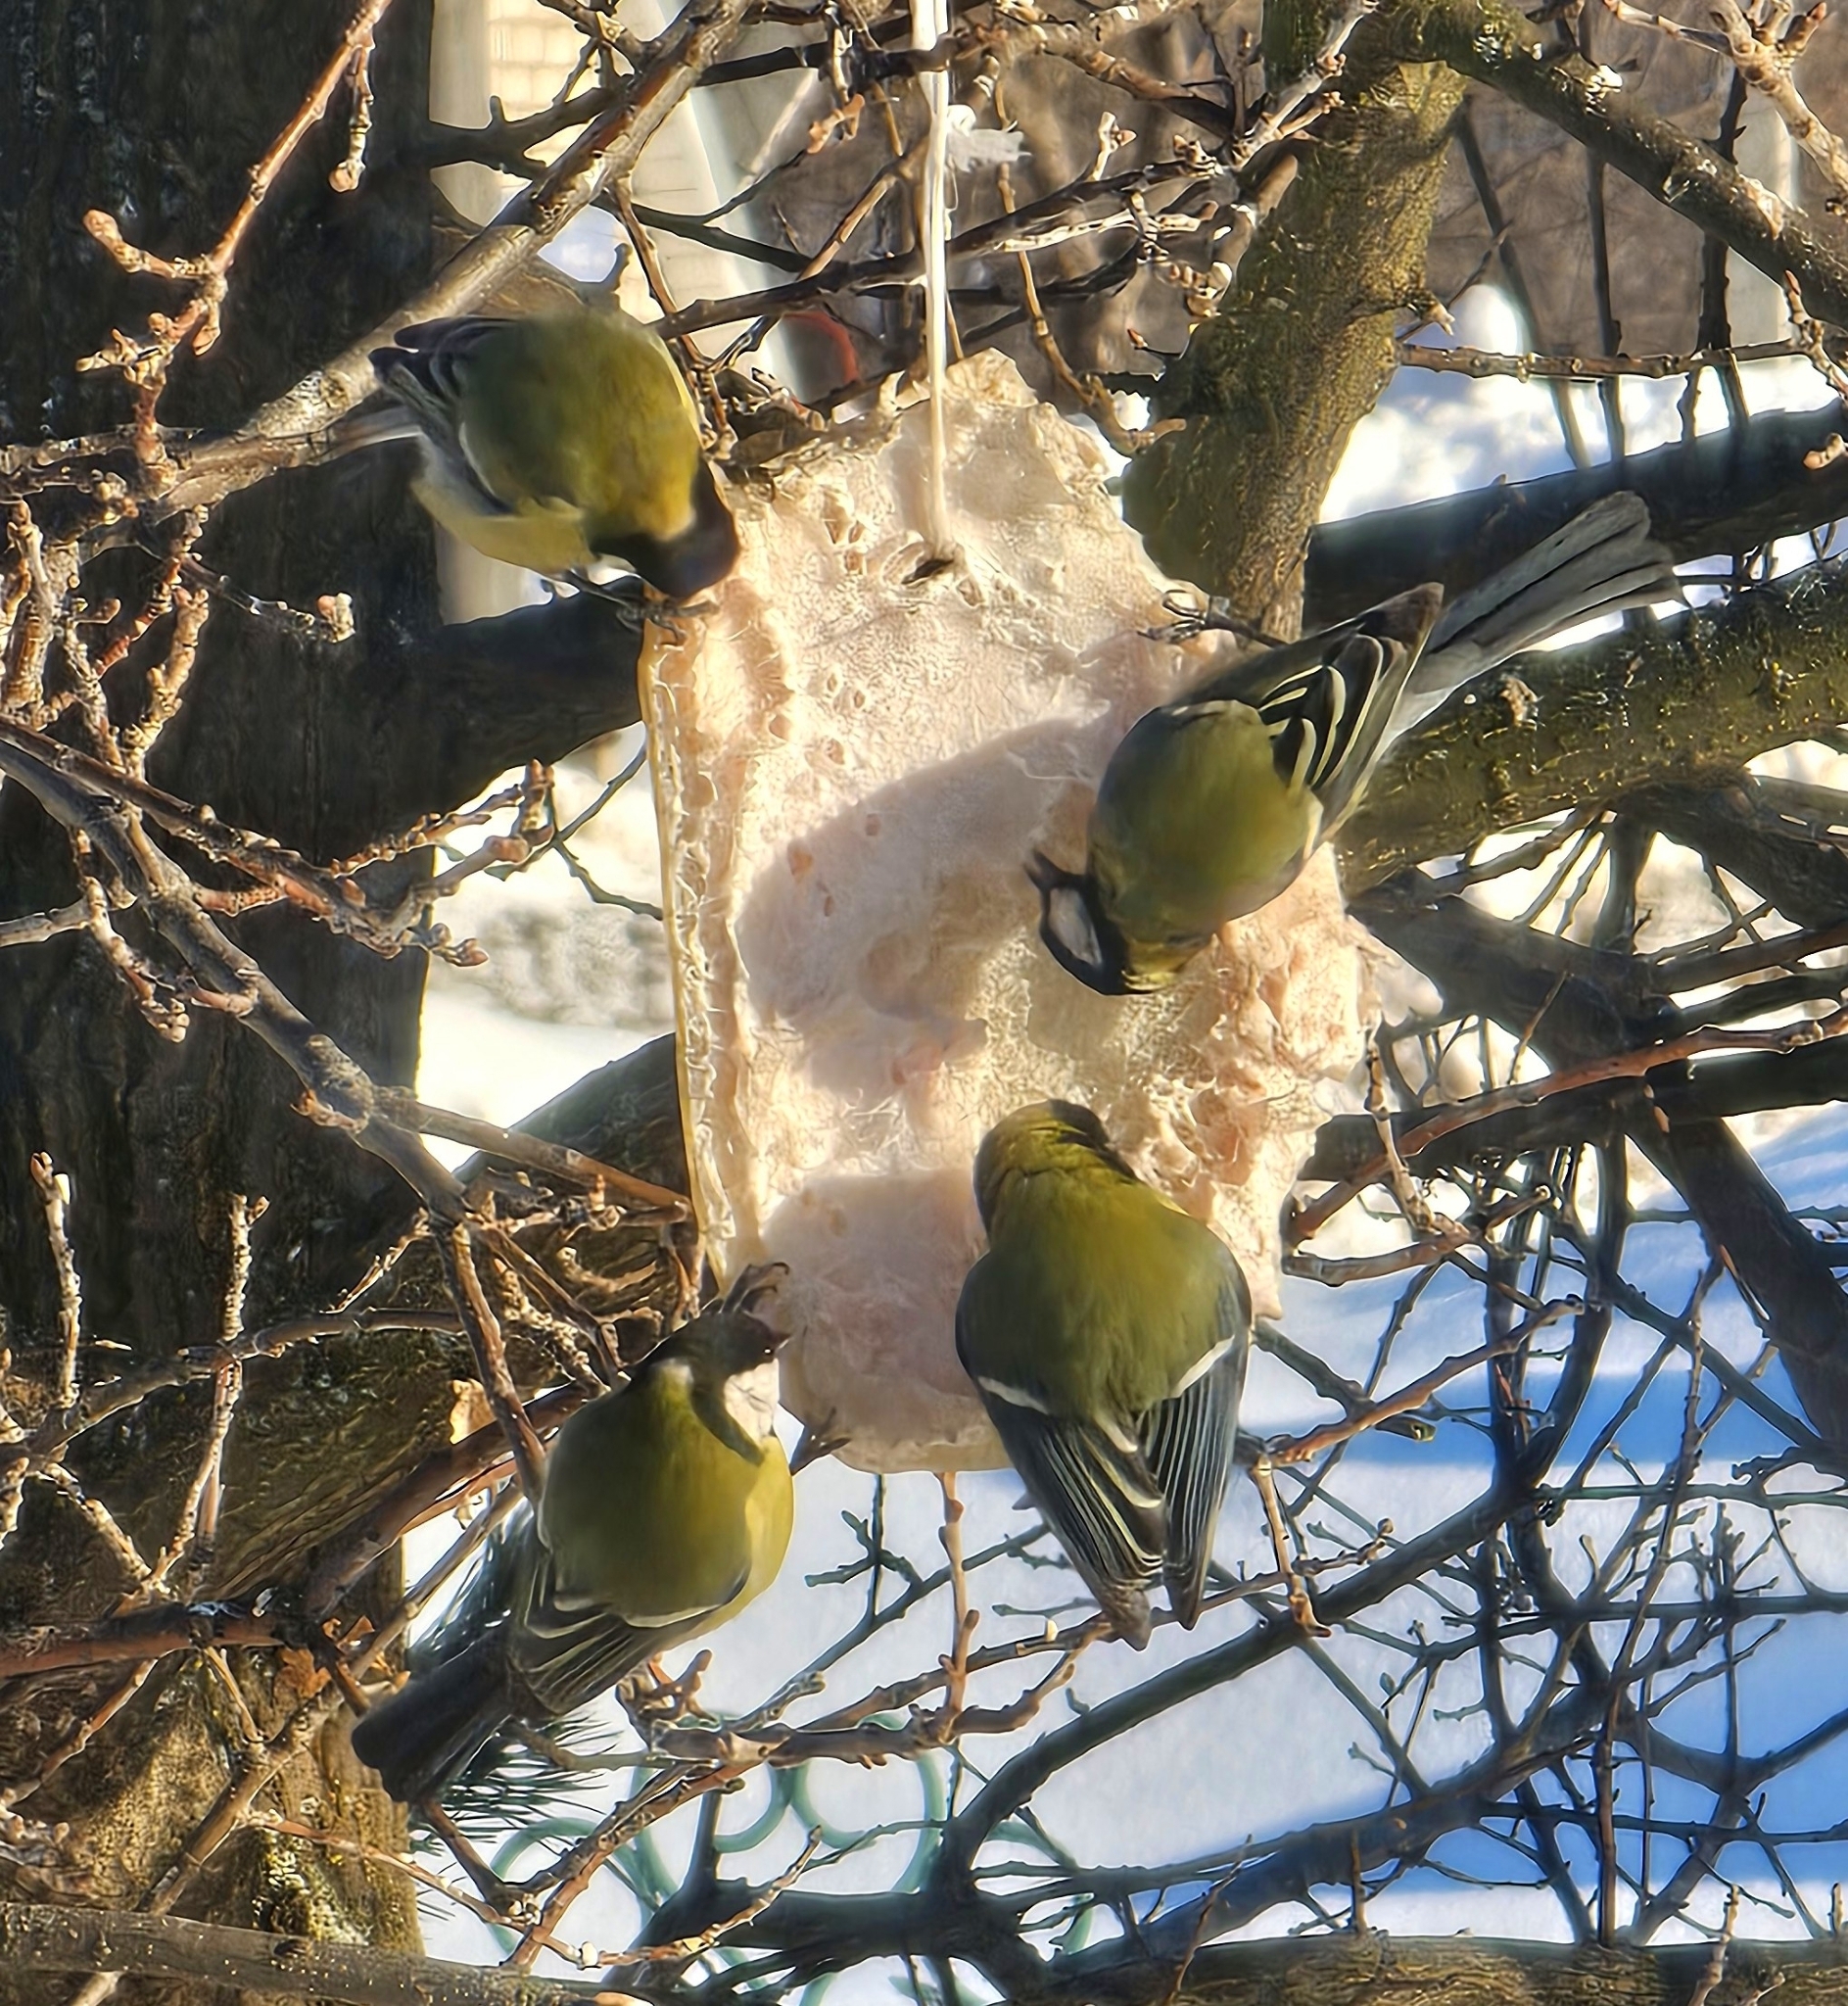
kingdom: Animalia
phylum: Chordata
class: Aves
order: Passeriformes
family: Paridae
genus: Parus
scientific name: Parus major
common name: Great tit
